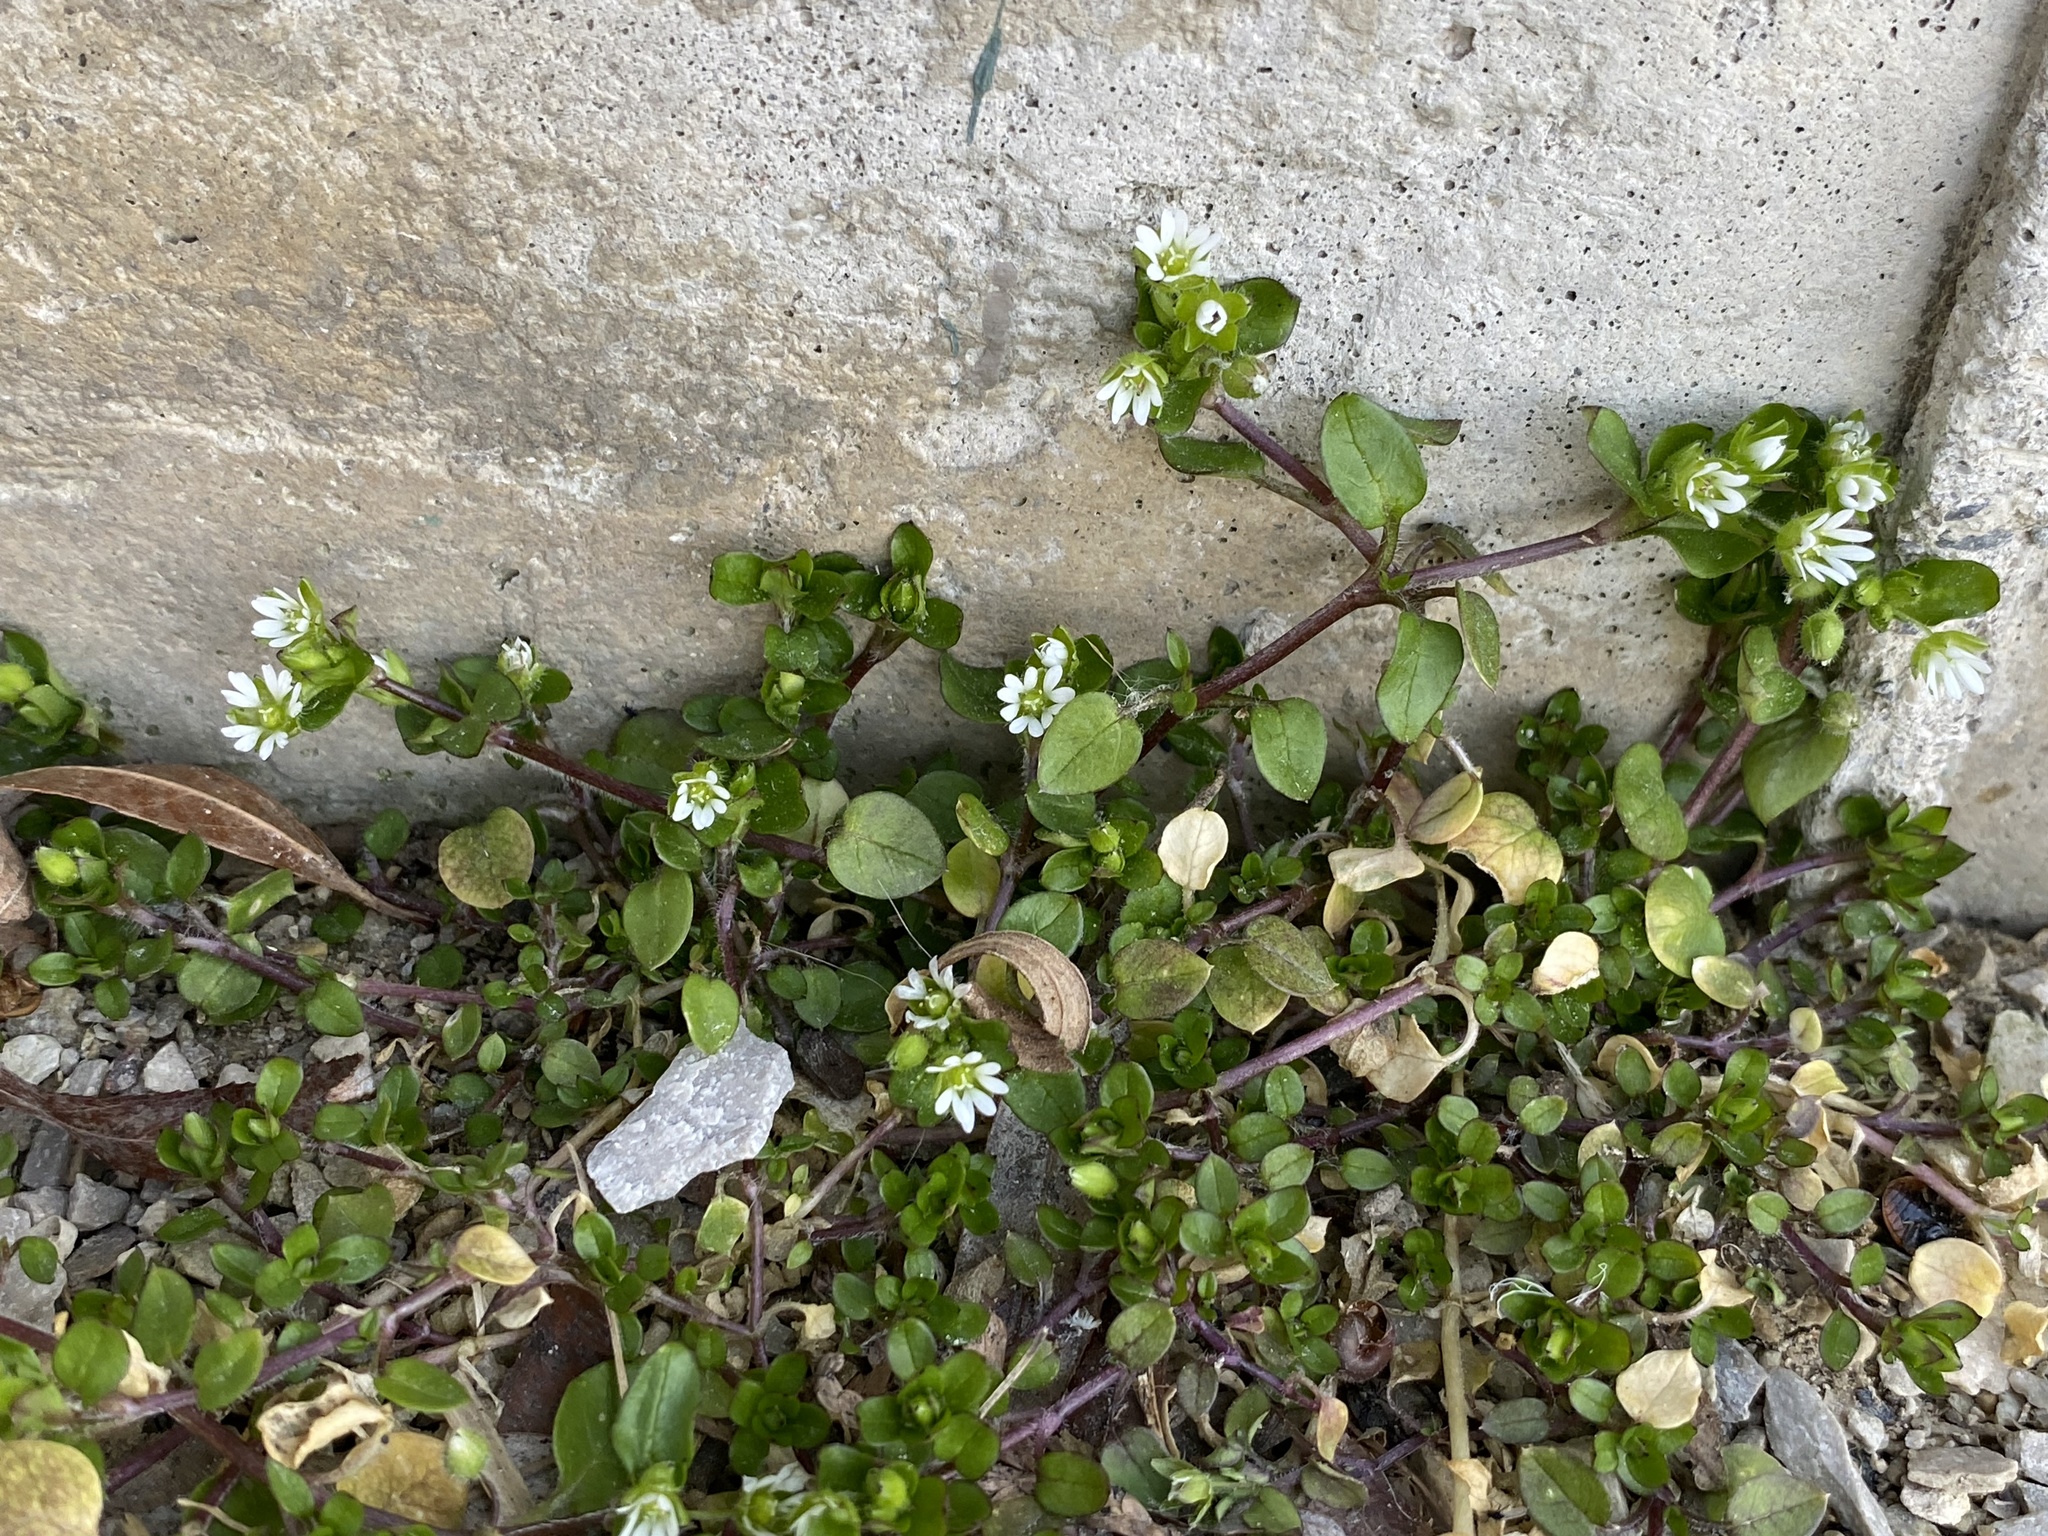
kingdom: Plantae
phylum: Tracheophyta
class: Magnoliopsida
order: Caryophyllales
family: Caryophyllaceae
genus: Stellaria
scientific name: Stellaria media
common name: Common chickweed
